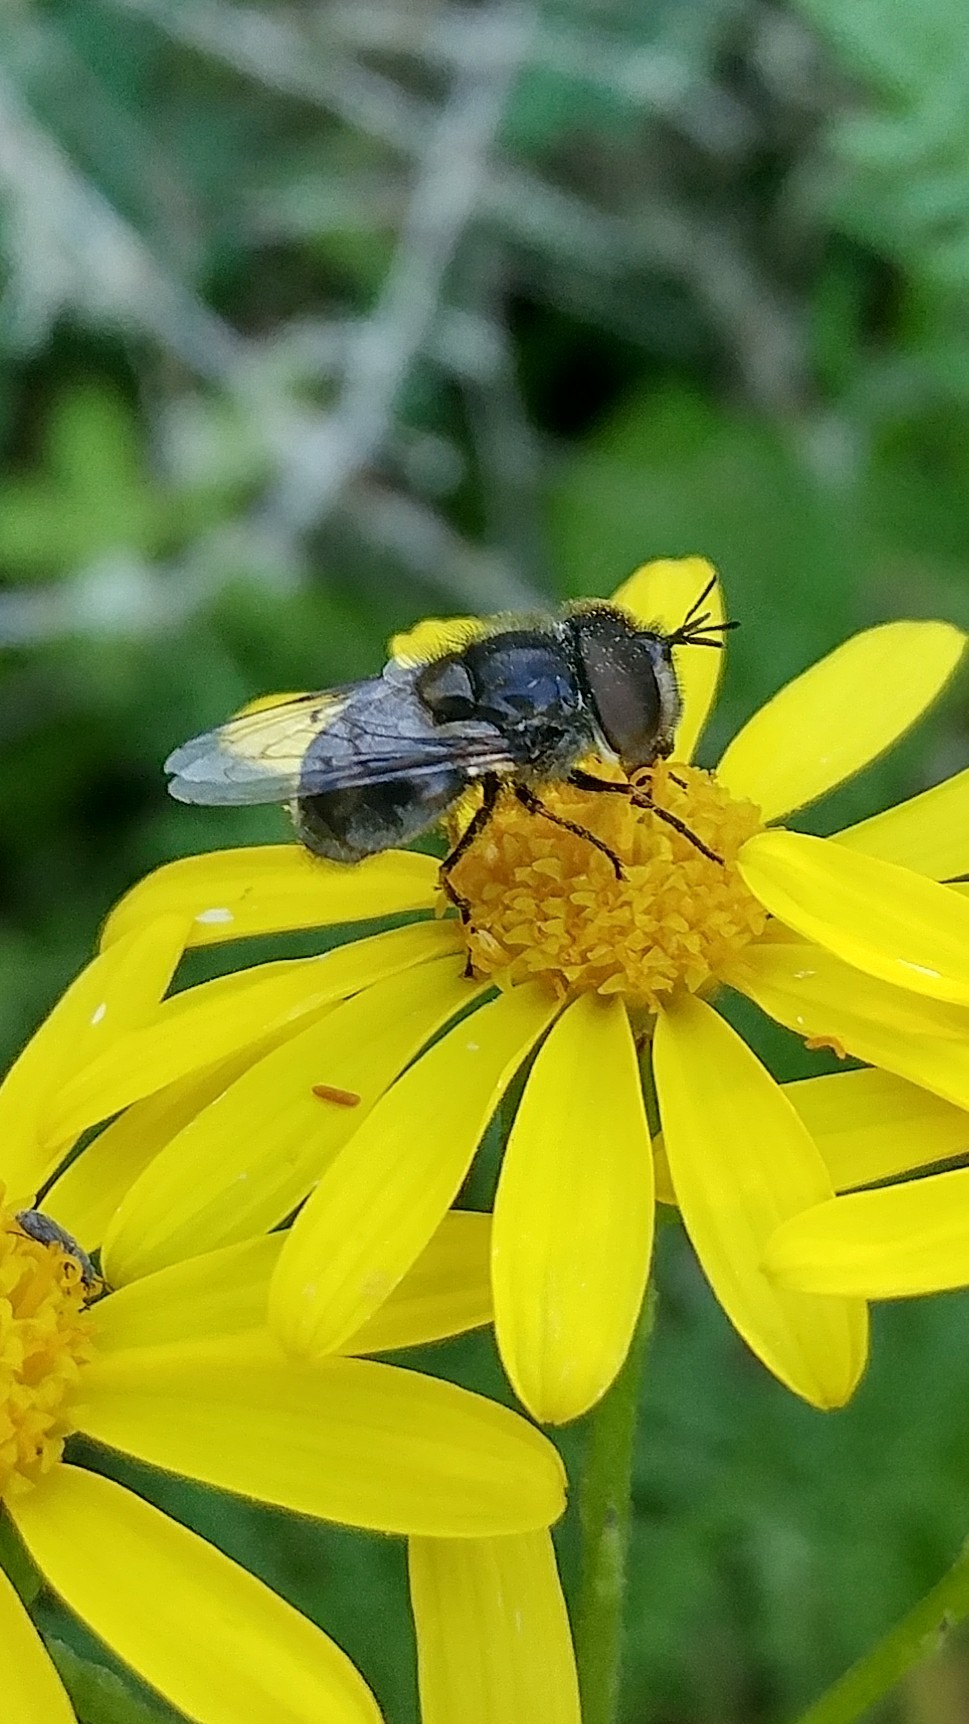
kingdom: Animalia
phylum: Arthropoda
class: Insecta
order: Diptera
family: Syrphidae
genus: Copestylum
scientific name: Copestylum lentum
